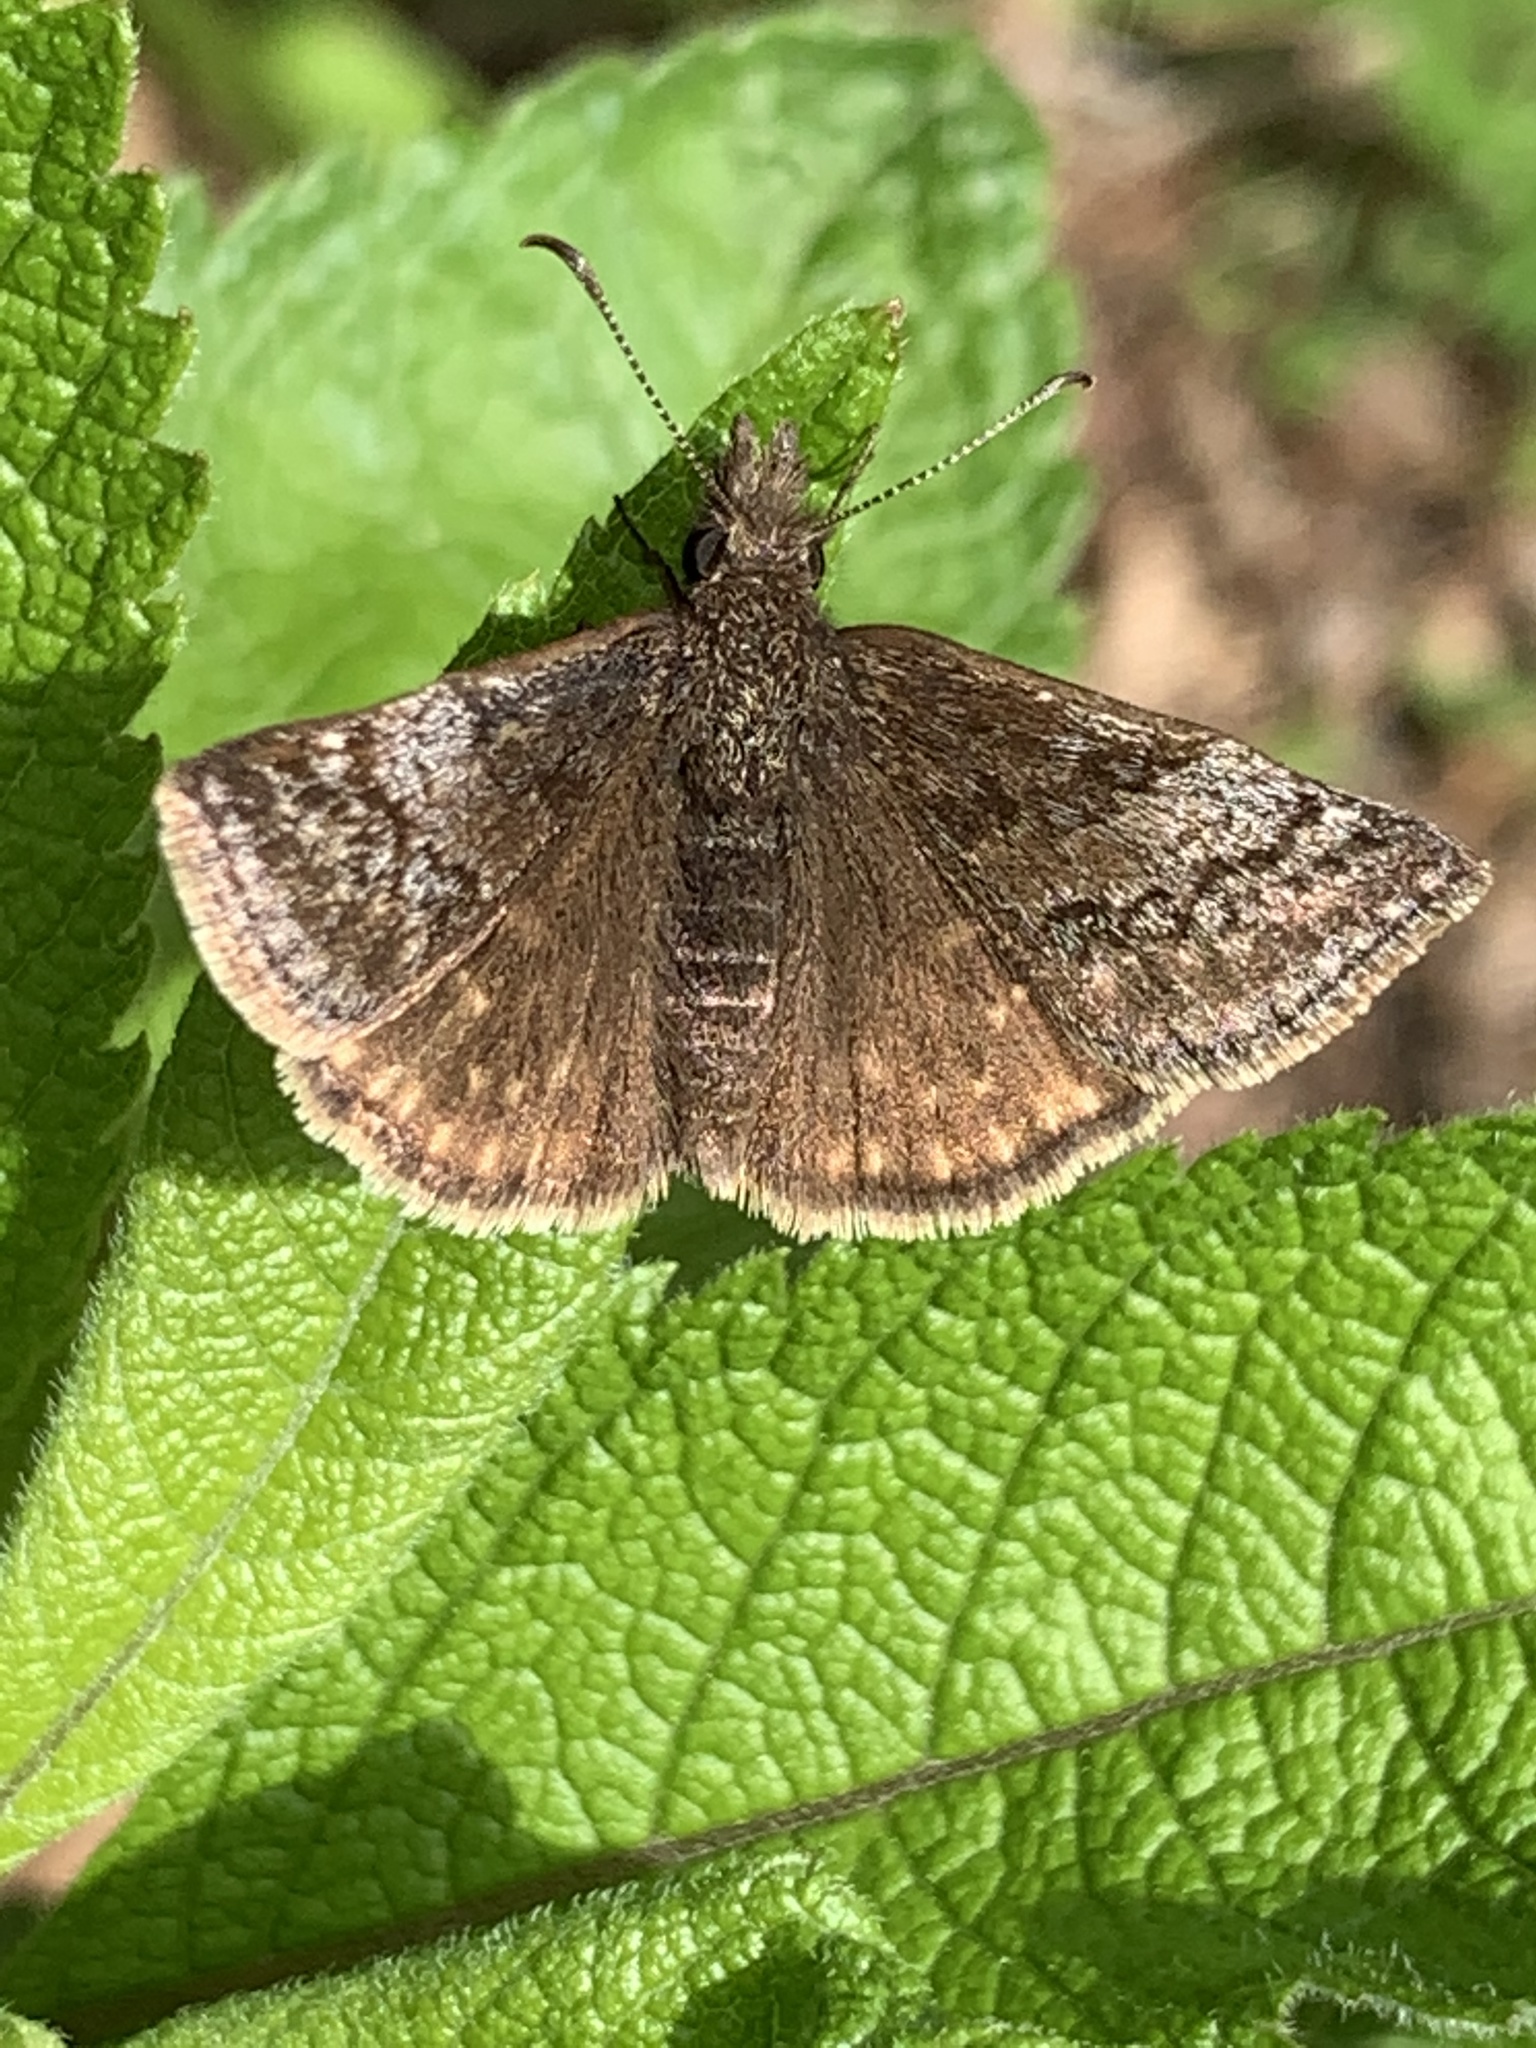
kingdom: Animalia
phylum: Arthropoda
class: Insecta
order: Lepidoptera
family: Hesperiidae
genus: Erynnis
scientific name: Erynnis baptisiae
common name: Wild indigo duskywing
